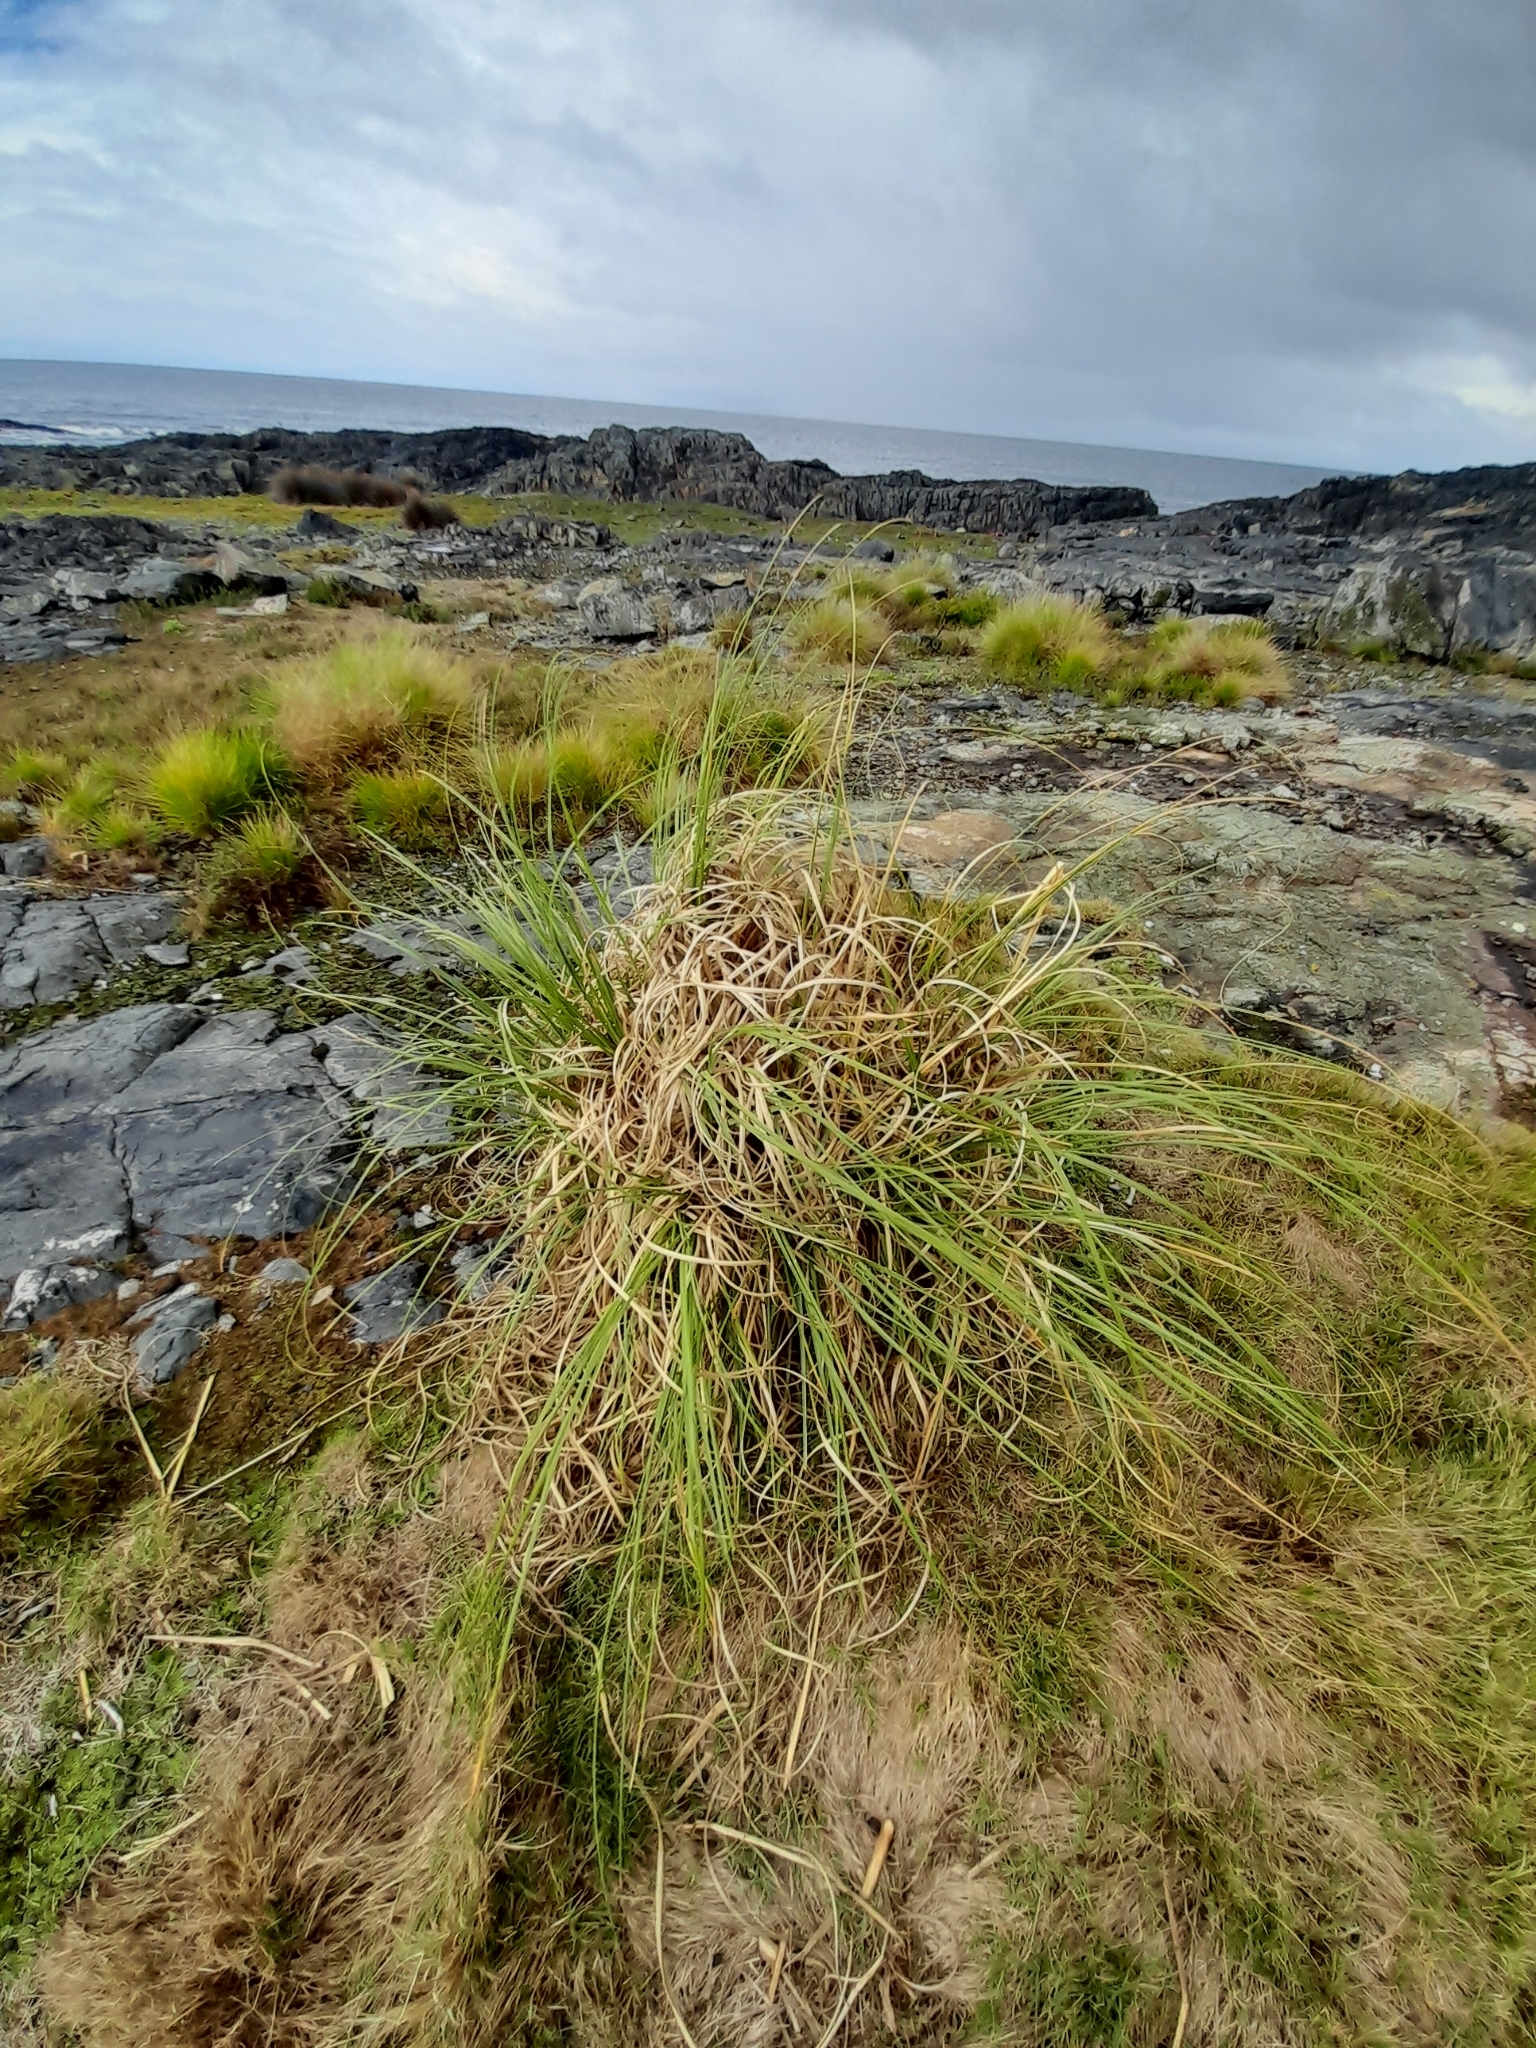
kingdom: Plantae
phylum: Tracheophyta
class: Liliopsida
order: Poales
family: Poaceae
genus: Cortaderia
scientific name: Cortaderia selloana
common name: Uruguayan pampas grass
